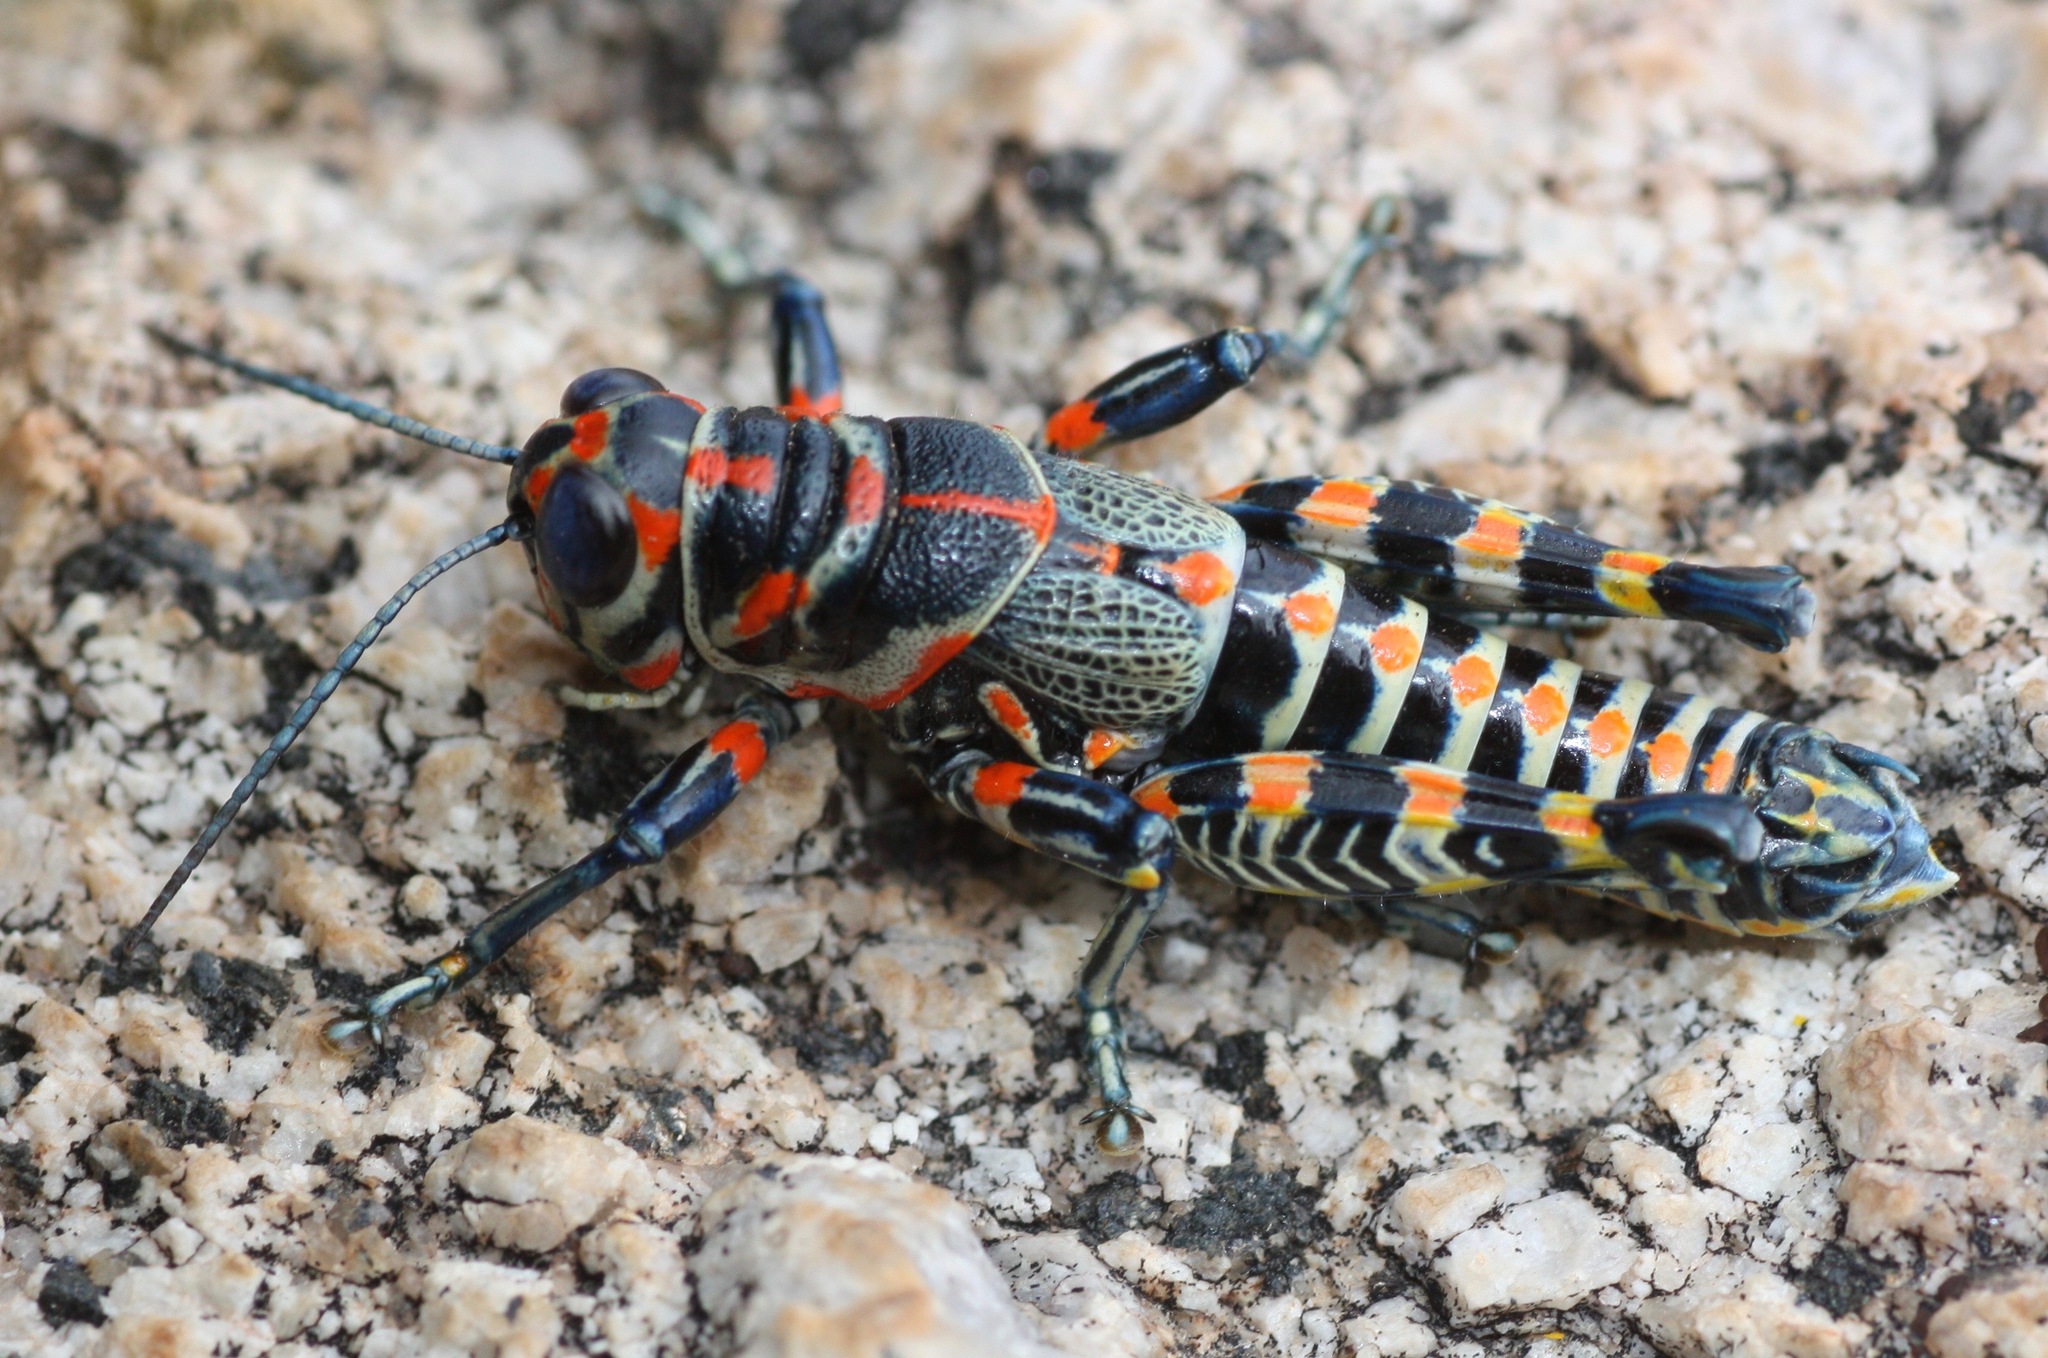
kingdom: Animalia
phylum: Arthropoda
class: Insecta
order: Orthoptera
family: Acrididae
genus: Dactylotum
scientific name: Dactylotum bicolor
